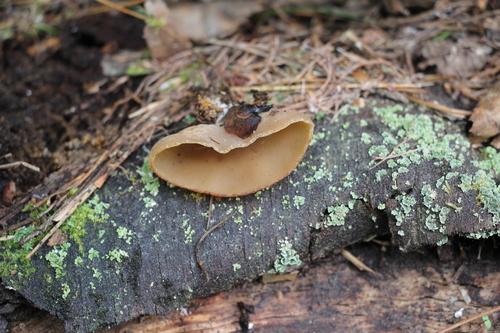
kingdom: Fungi
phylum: Ascomycota
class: Pezizomycetes
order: Pezizales
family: Pezizaceae
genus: Peziza
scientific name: Peziza varia
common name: Layered cup
